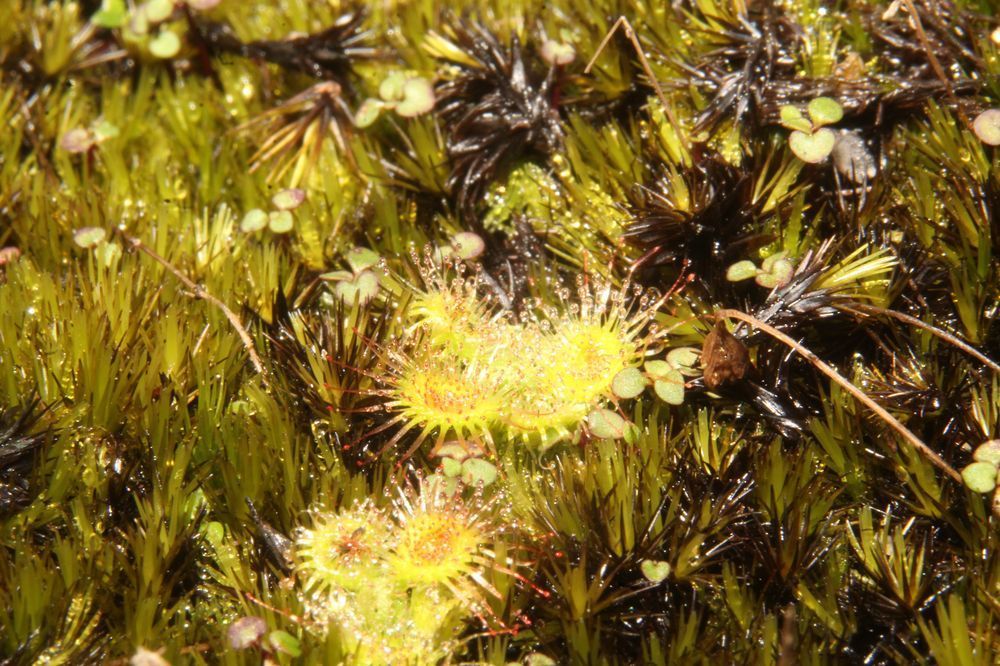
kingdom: Plantae
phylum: Tracheophyta
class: Magnoliopsida
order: Caryophyllales
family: Droseraceae
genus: Drosera
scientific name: Drosera glanduligera
